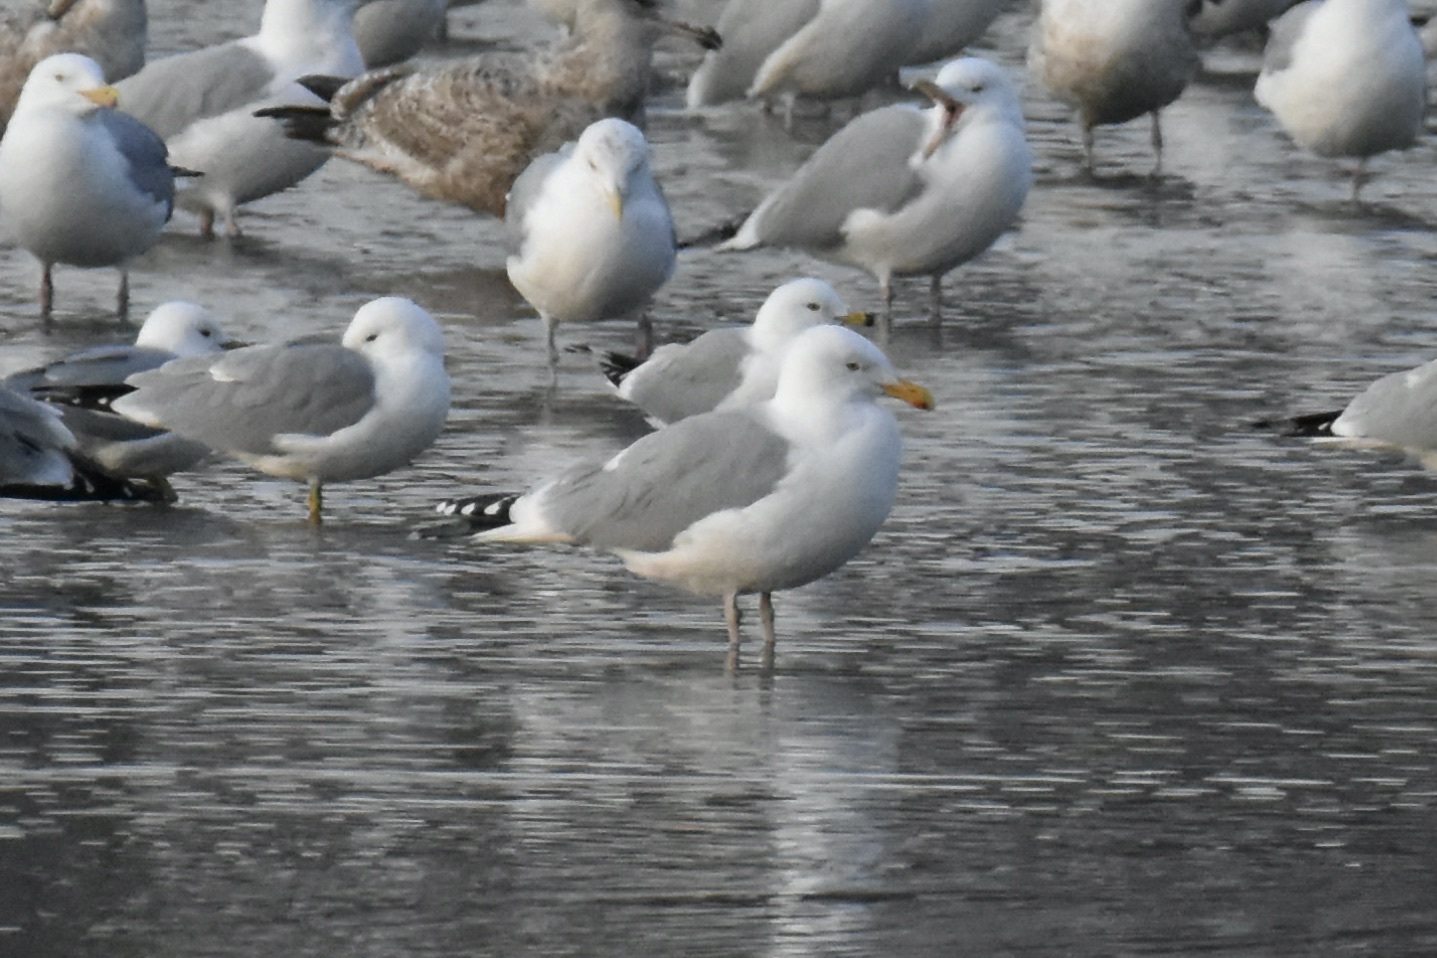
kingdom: Animalia
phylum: Chordata
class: Aves
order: Charadriiformes
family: Laridae
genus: Larus
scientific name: Larus argentatus
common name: Herring gull
